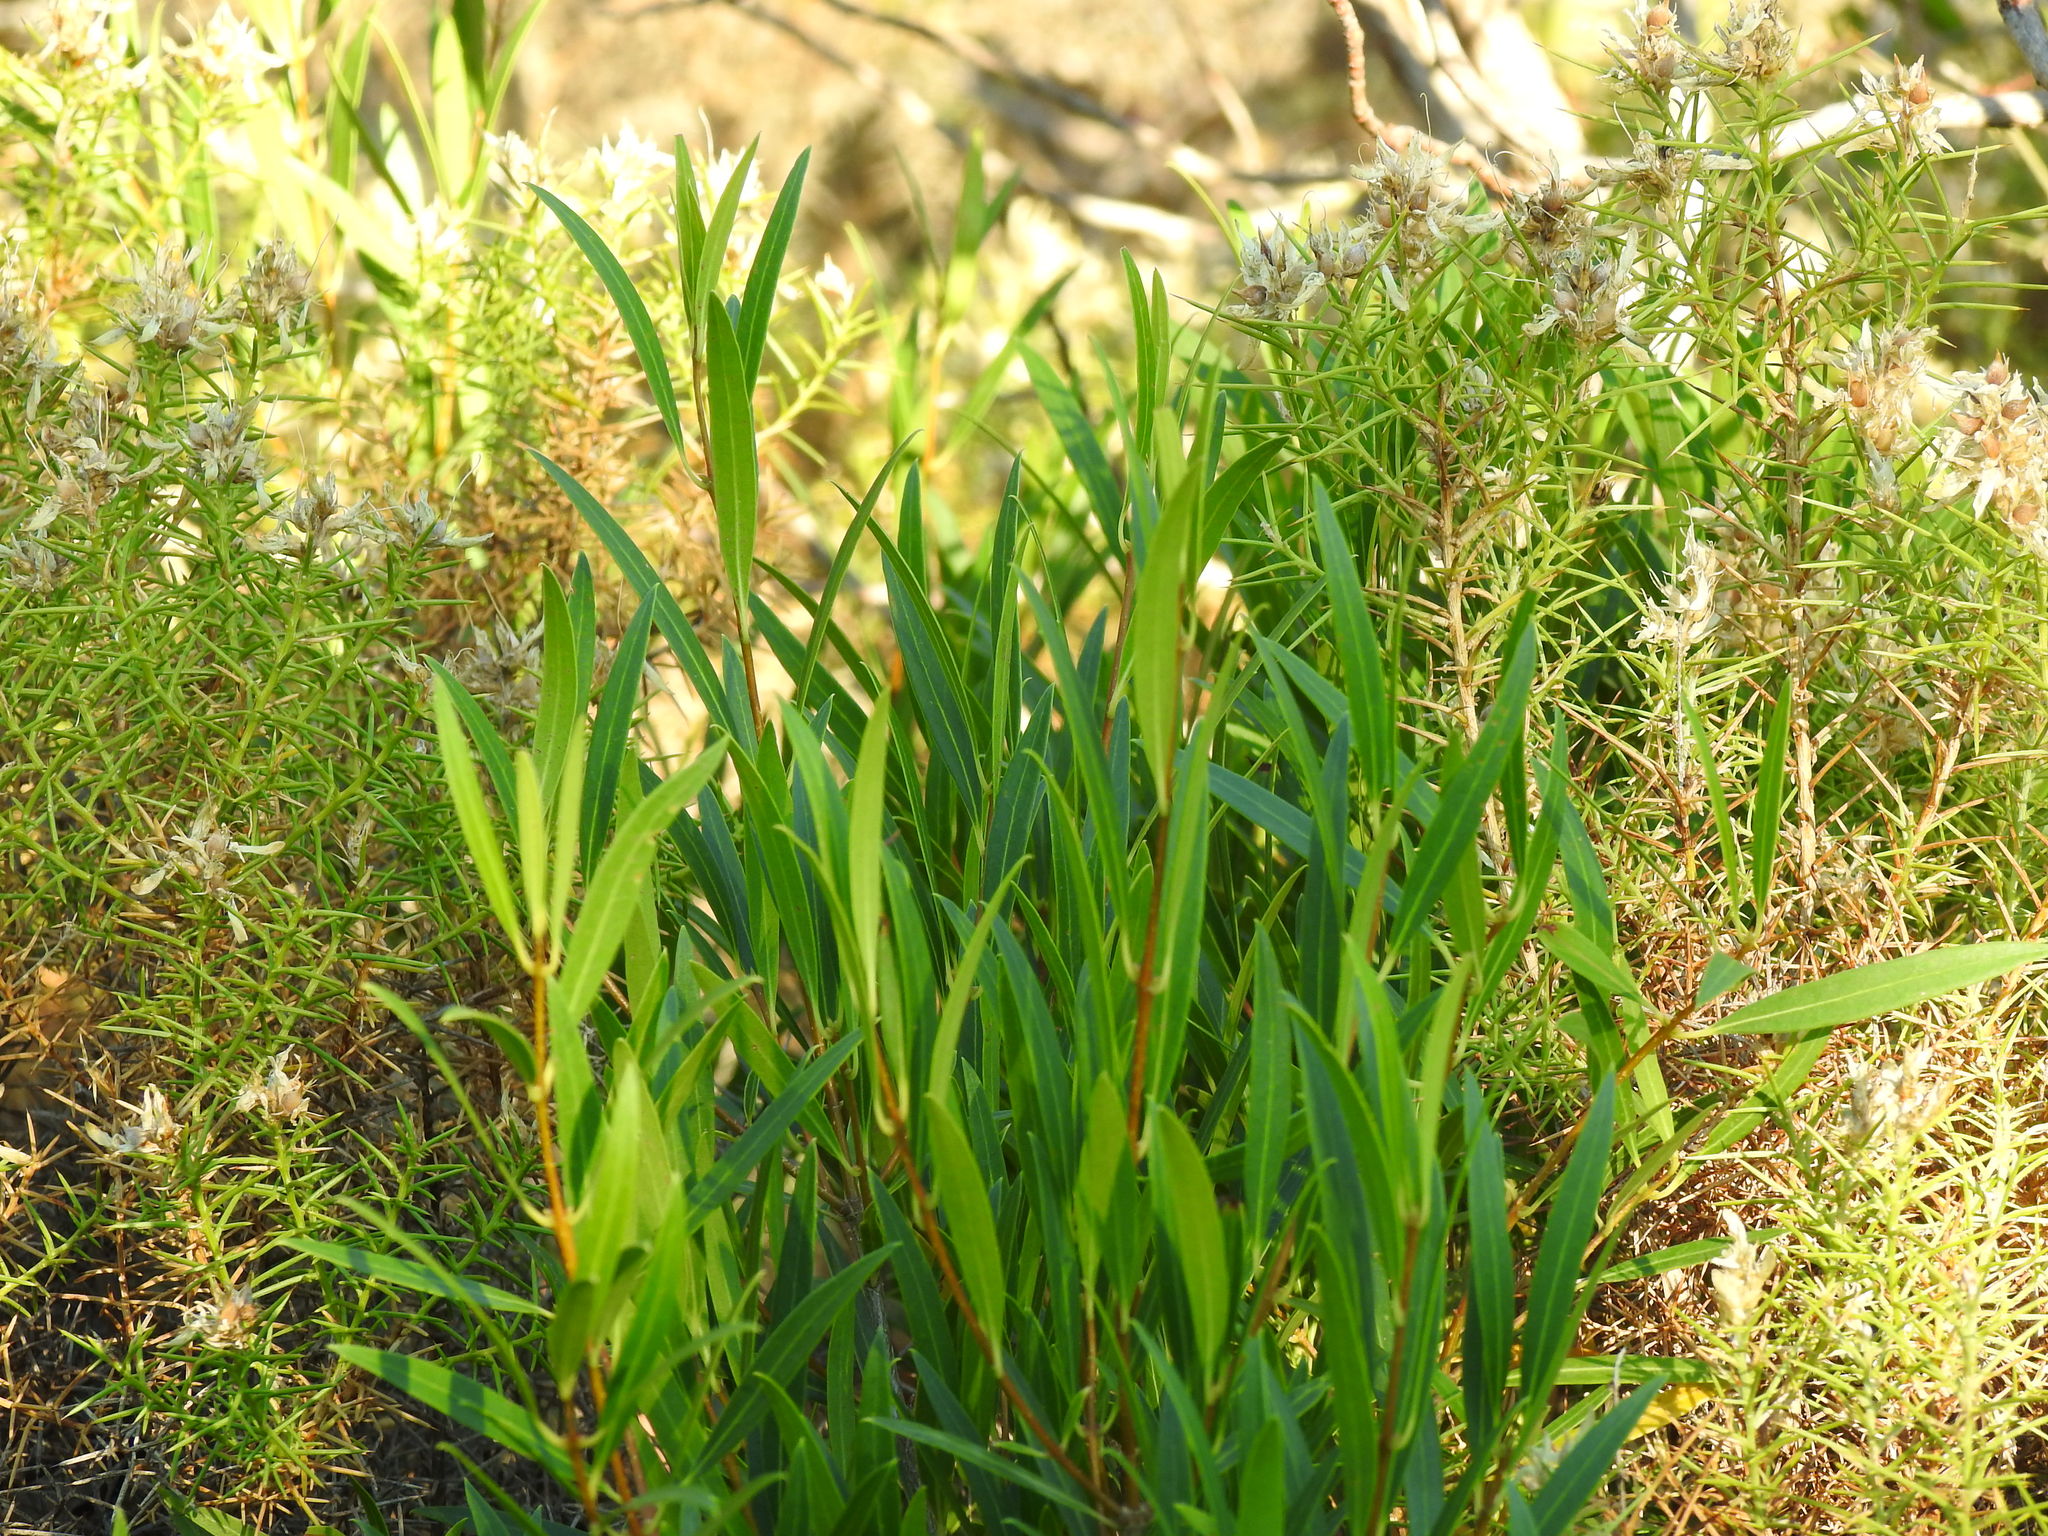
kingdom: Plantae
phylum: Tracheophyta
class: Magnoliopsida
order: Lamiales
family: Oleaceae
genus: Phillyrea
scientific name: Phillyrea angustifolia
